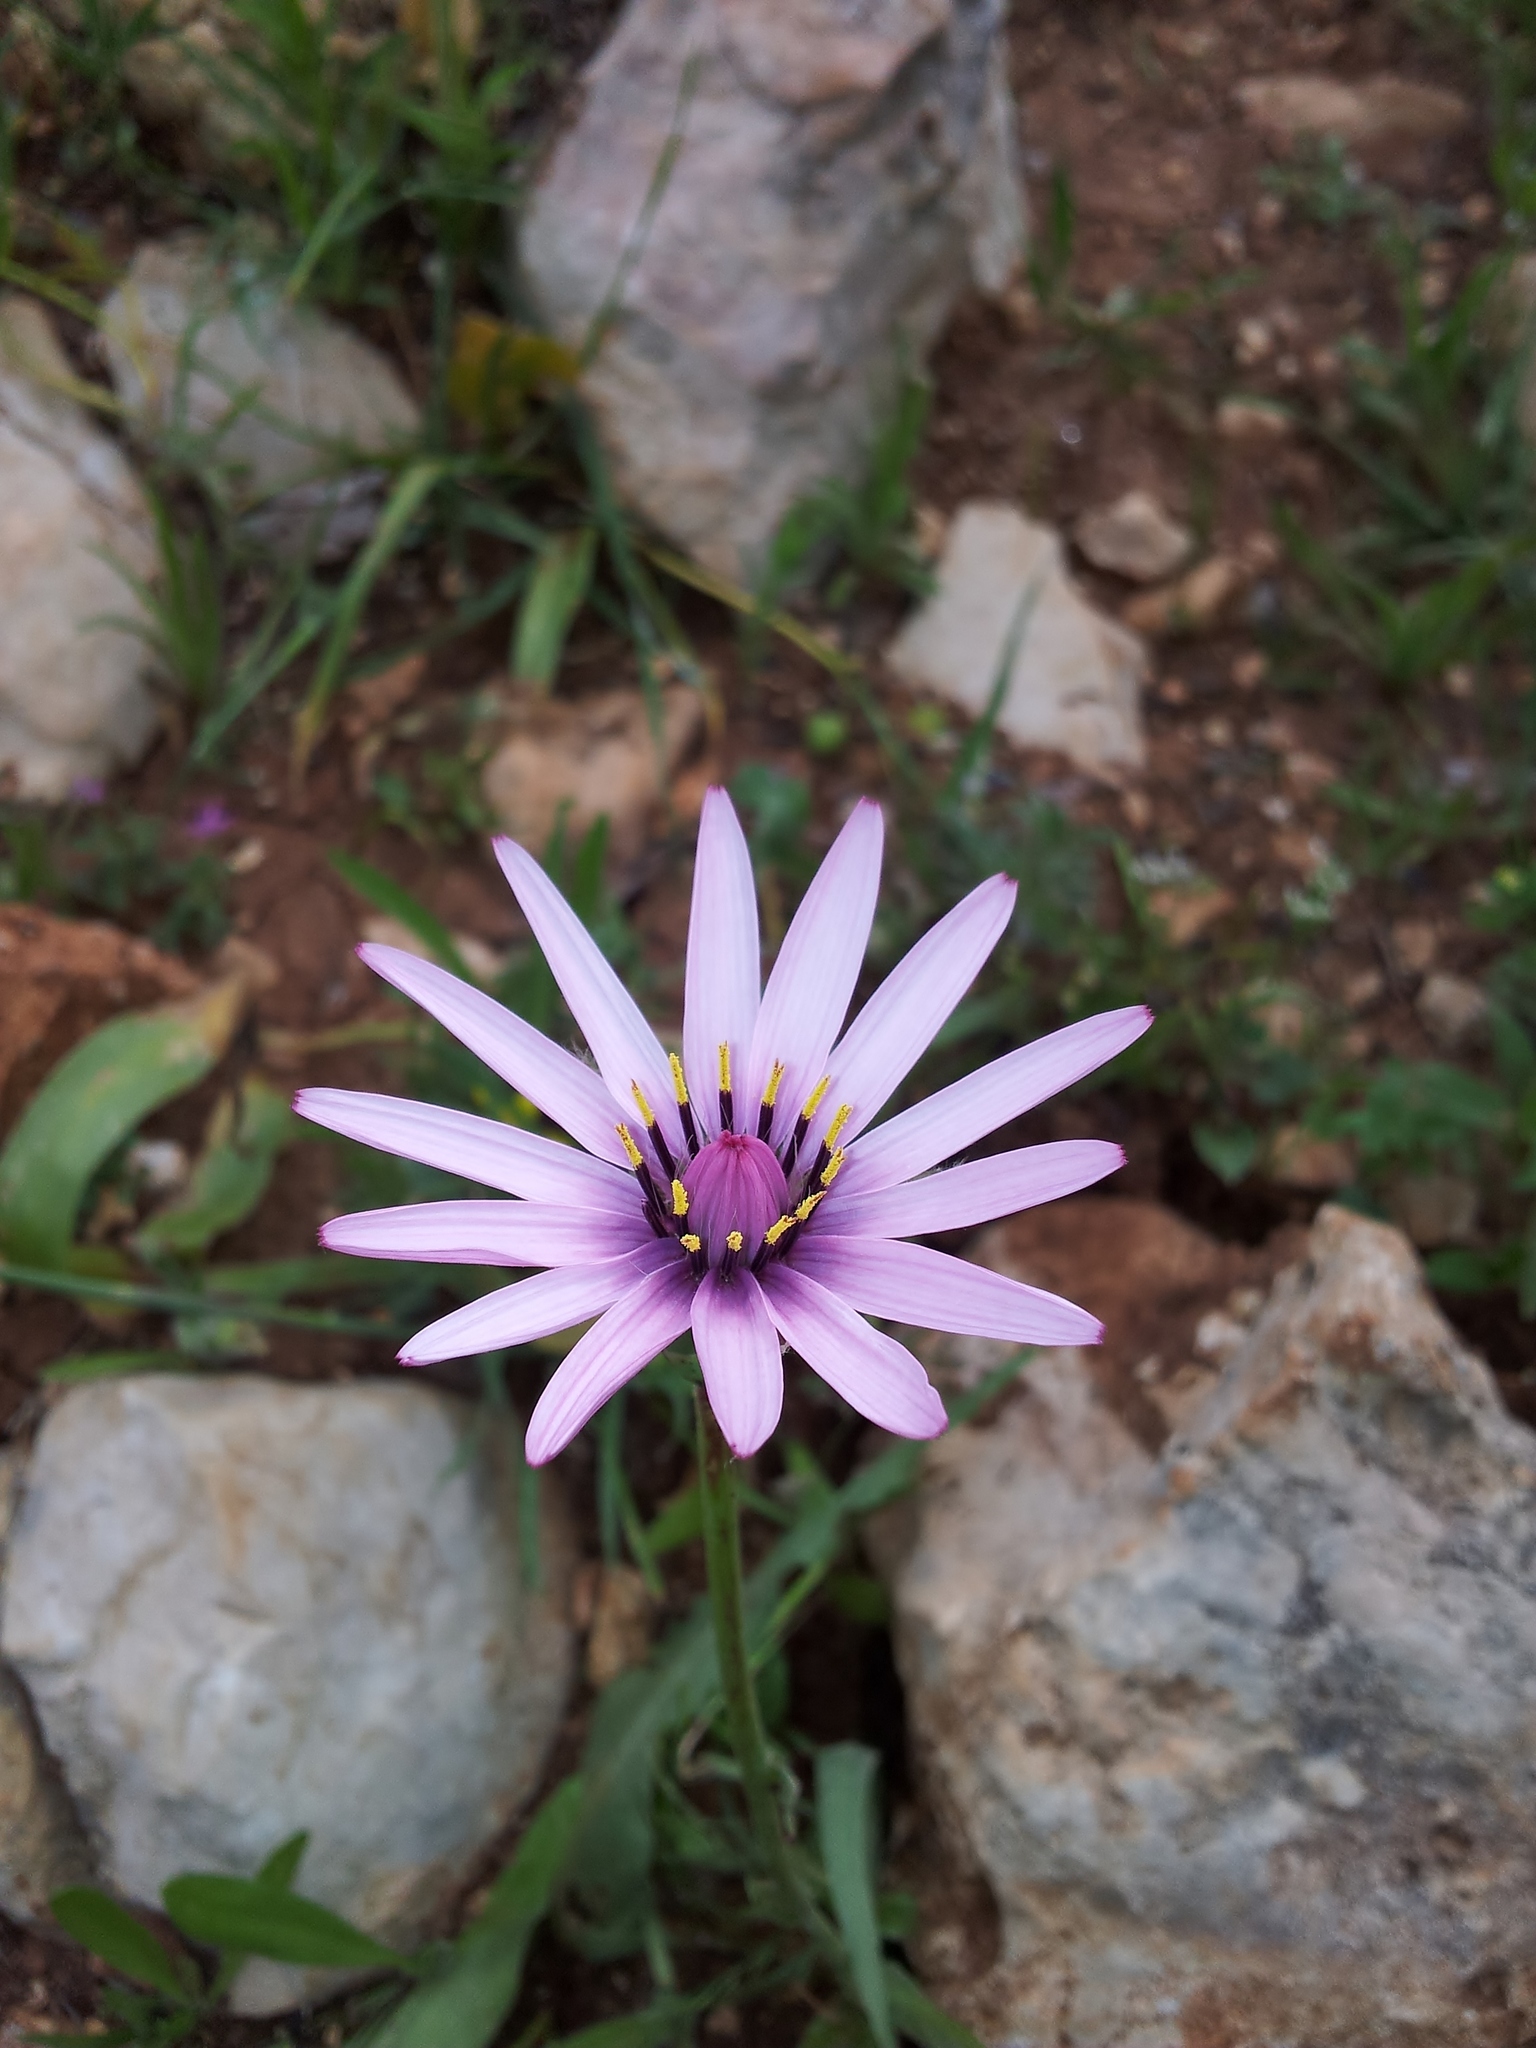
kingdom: Plantae
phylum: Tracheophyta
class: Magnoliopsida
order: Asterales
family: Asteraceae
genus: Pseudopodospermum
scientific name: Pseudopodospermum papposum
